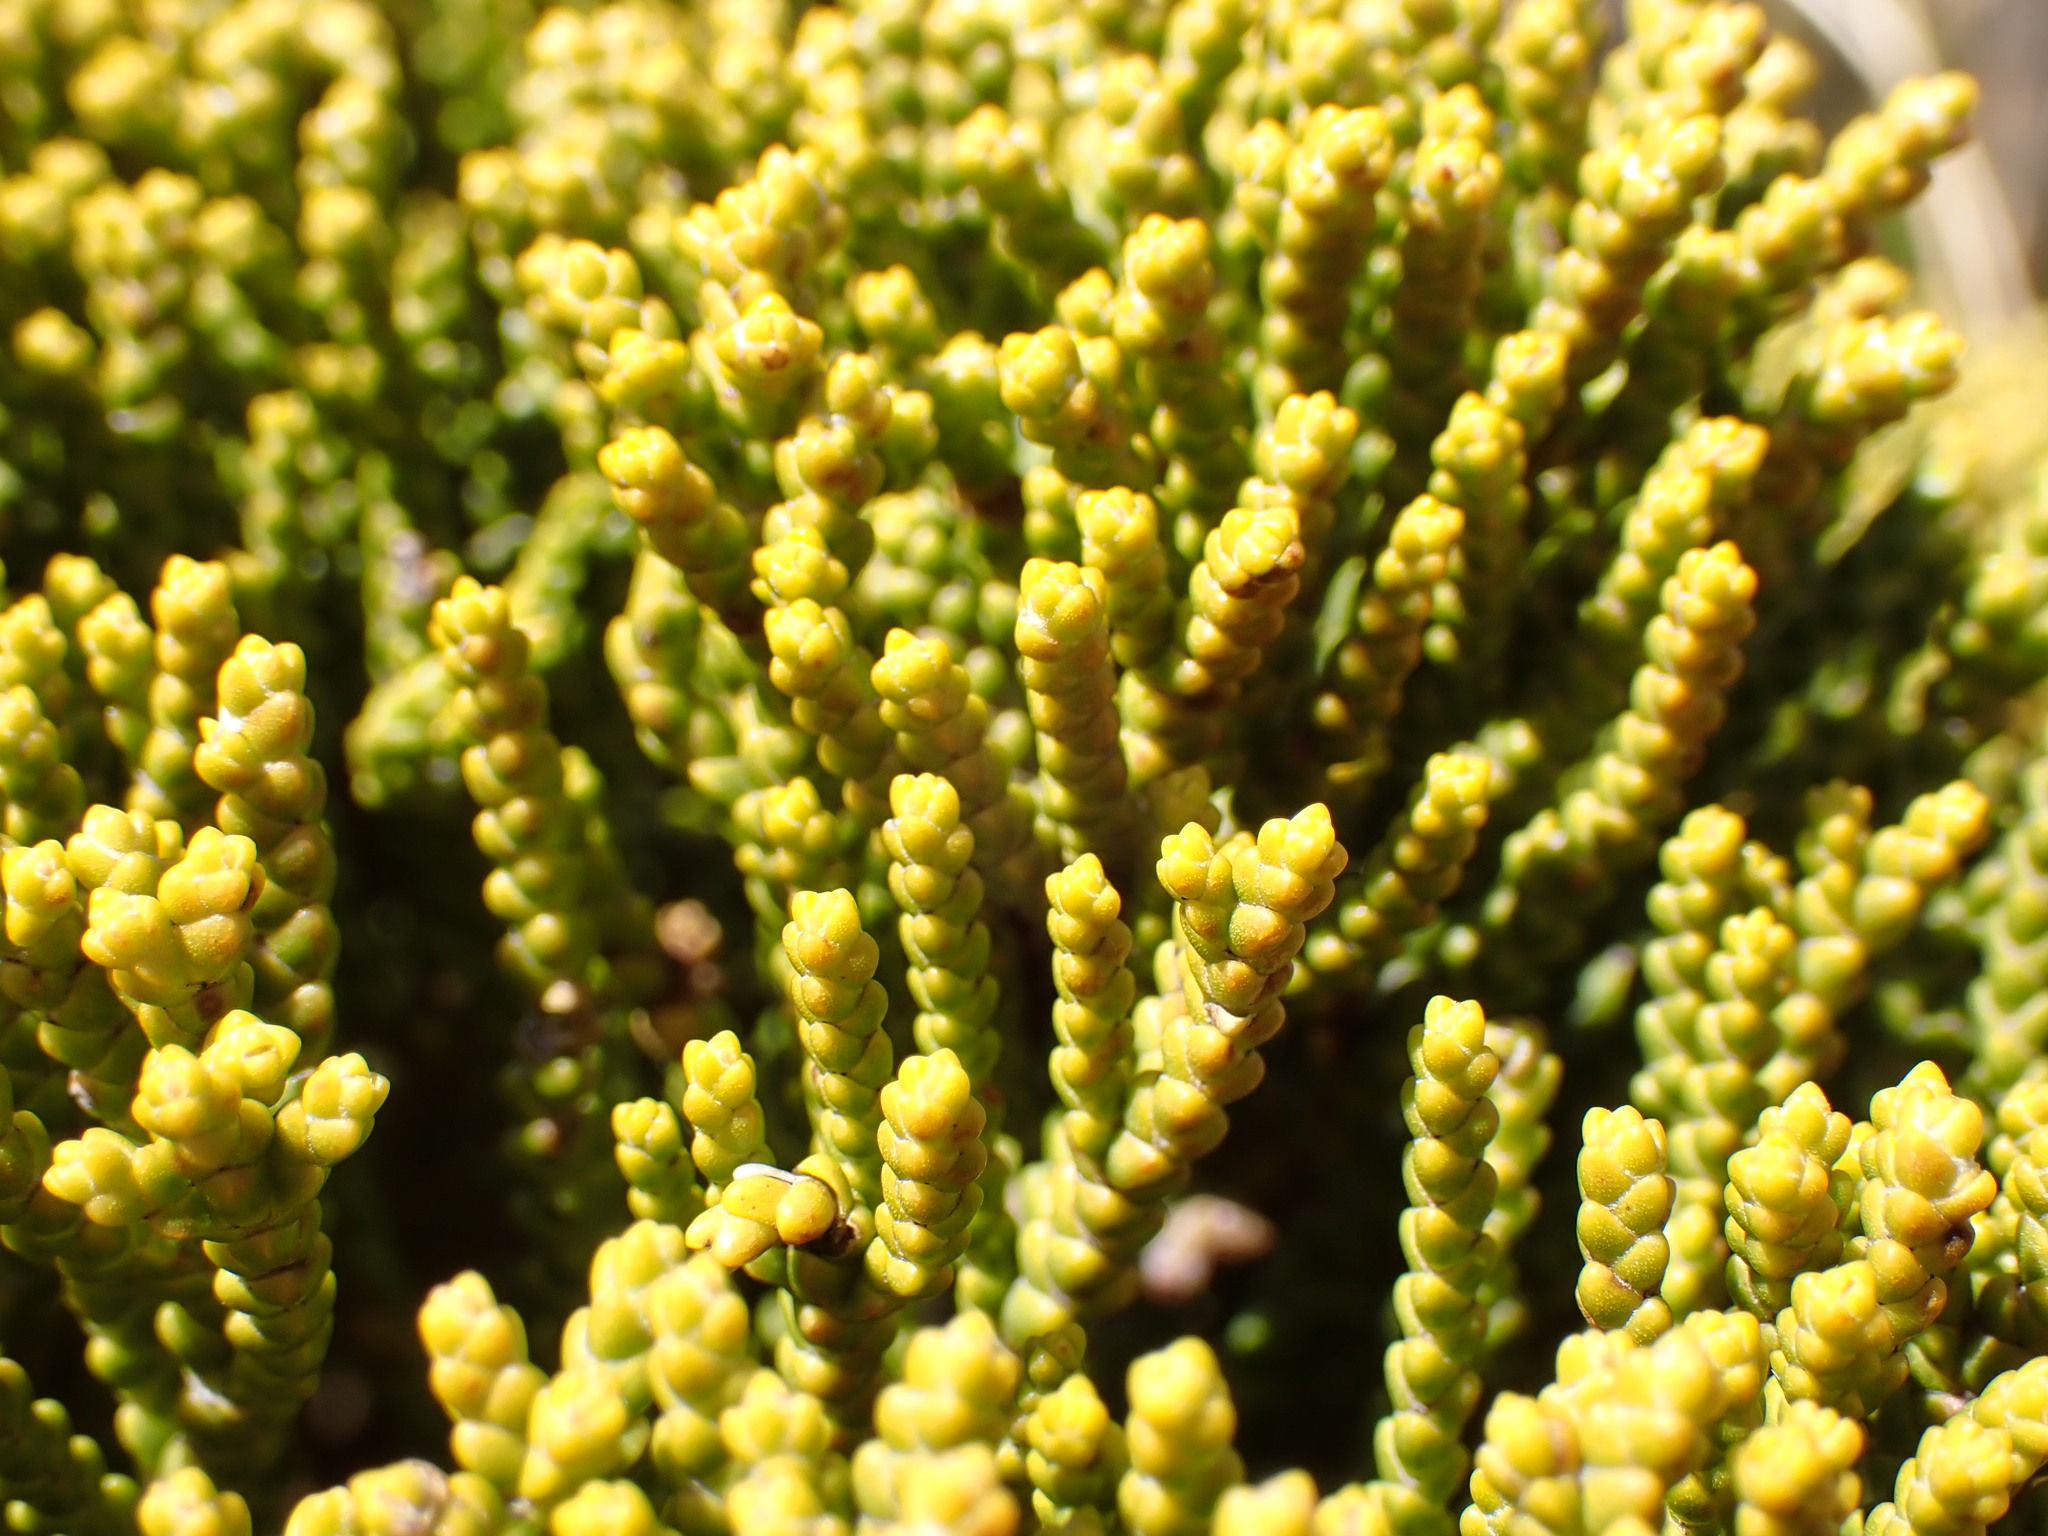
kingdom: Plantae
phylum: Tracheophyta
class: Magnoliopsida
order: Lamiales
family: Plantaginaceae
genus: Veronica
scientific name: Veronica tetragona
